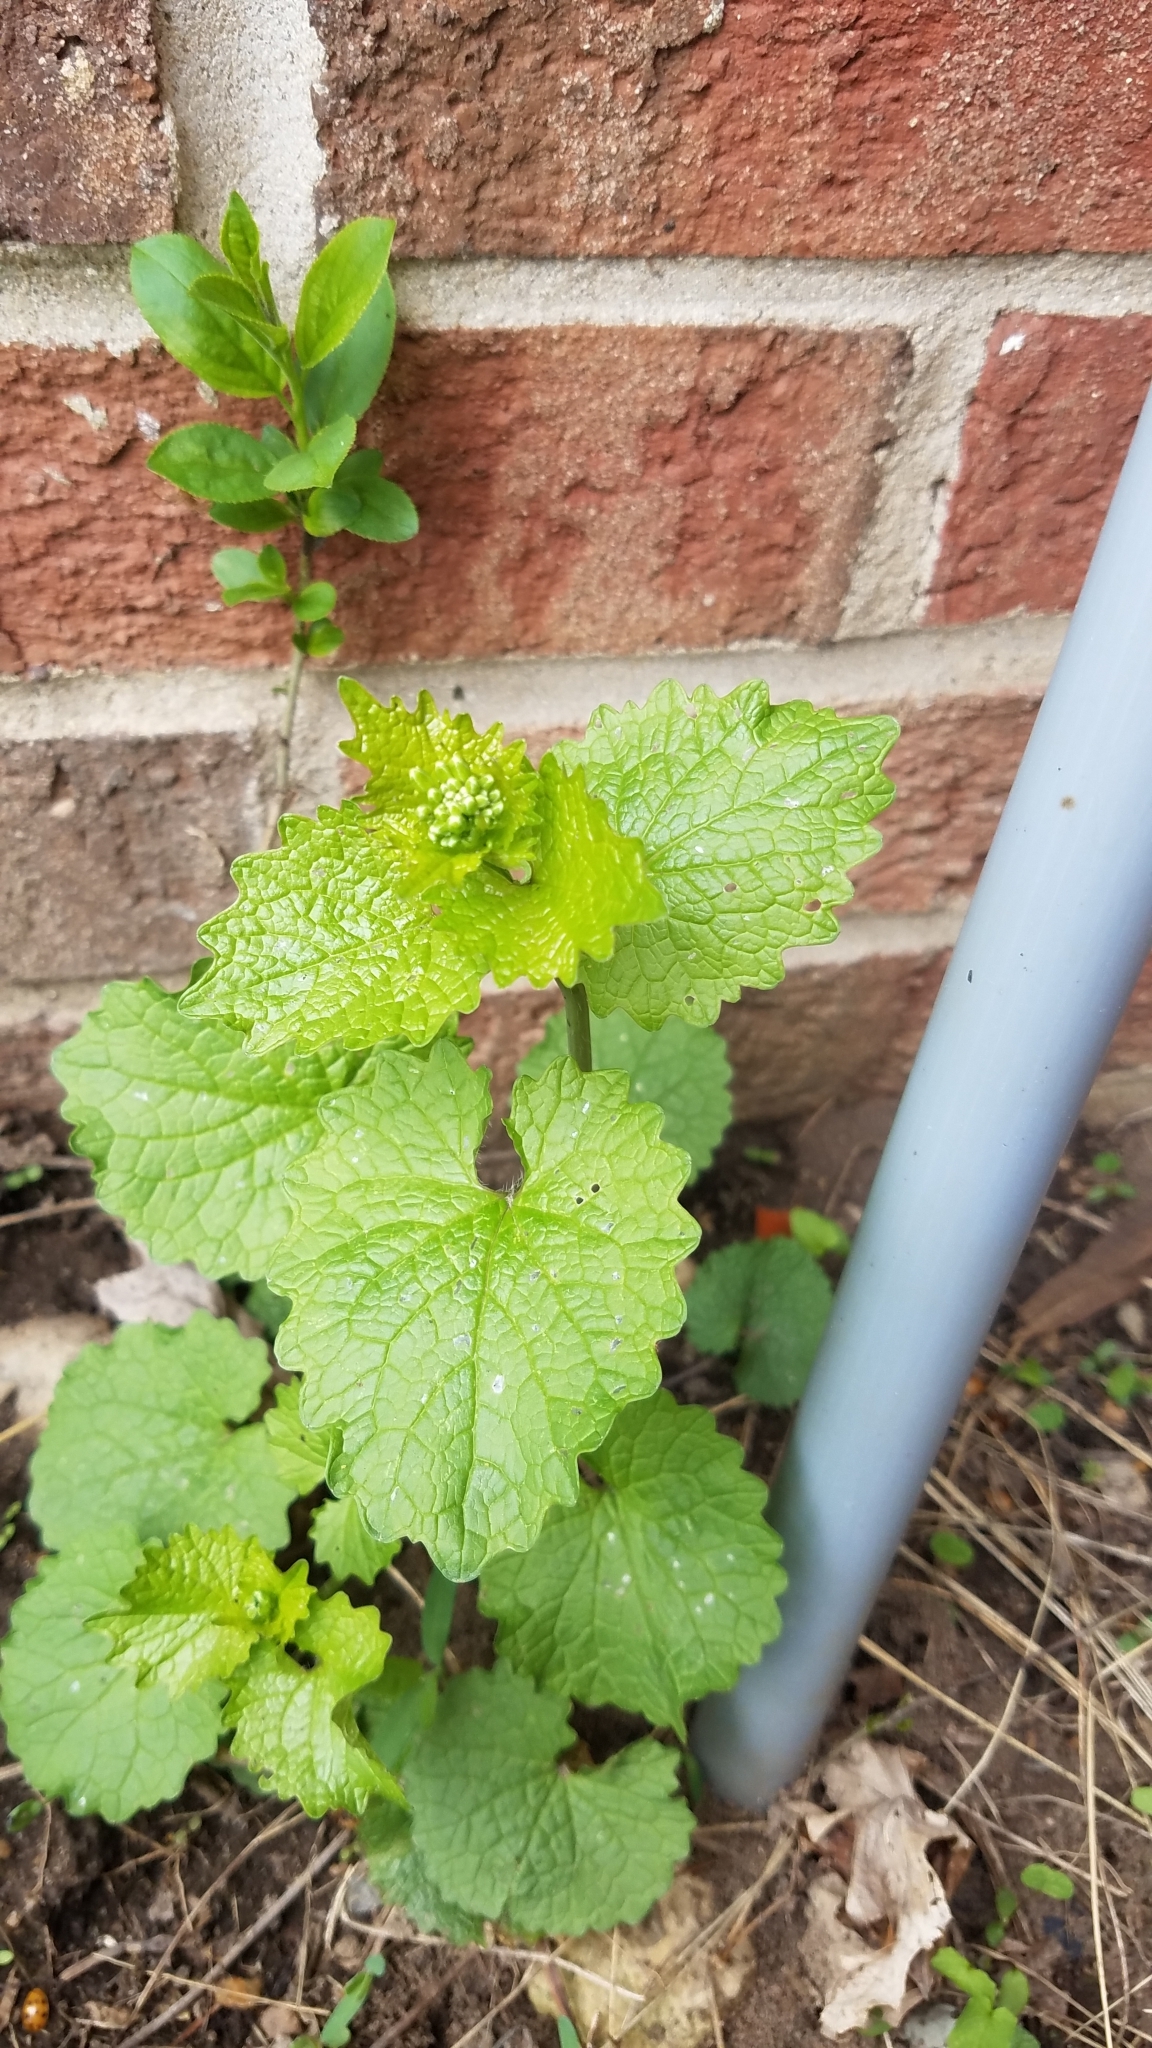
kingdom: Plantae
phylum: Tracheophyta
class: Magnoliopsida
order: Brassicales
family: Brassicaceae
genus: Alliaria
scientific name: Alliaria petiolata
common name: Garlic mustard
